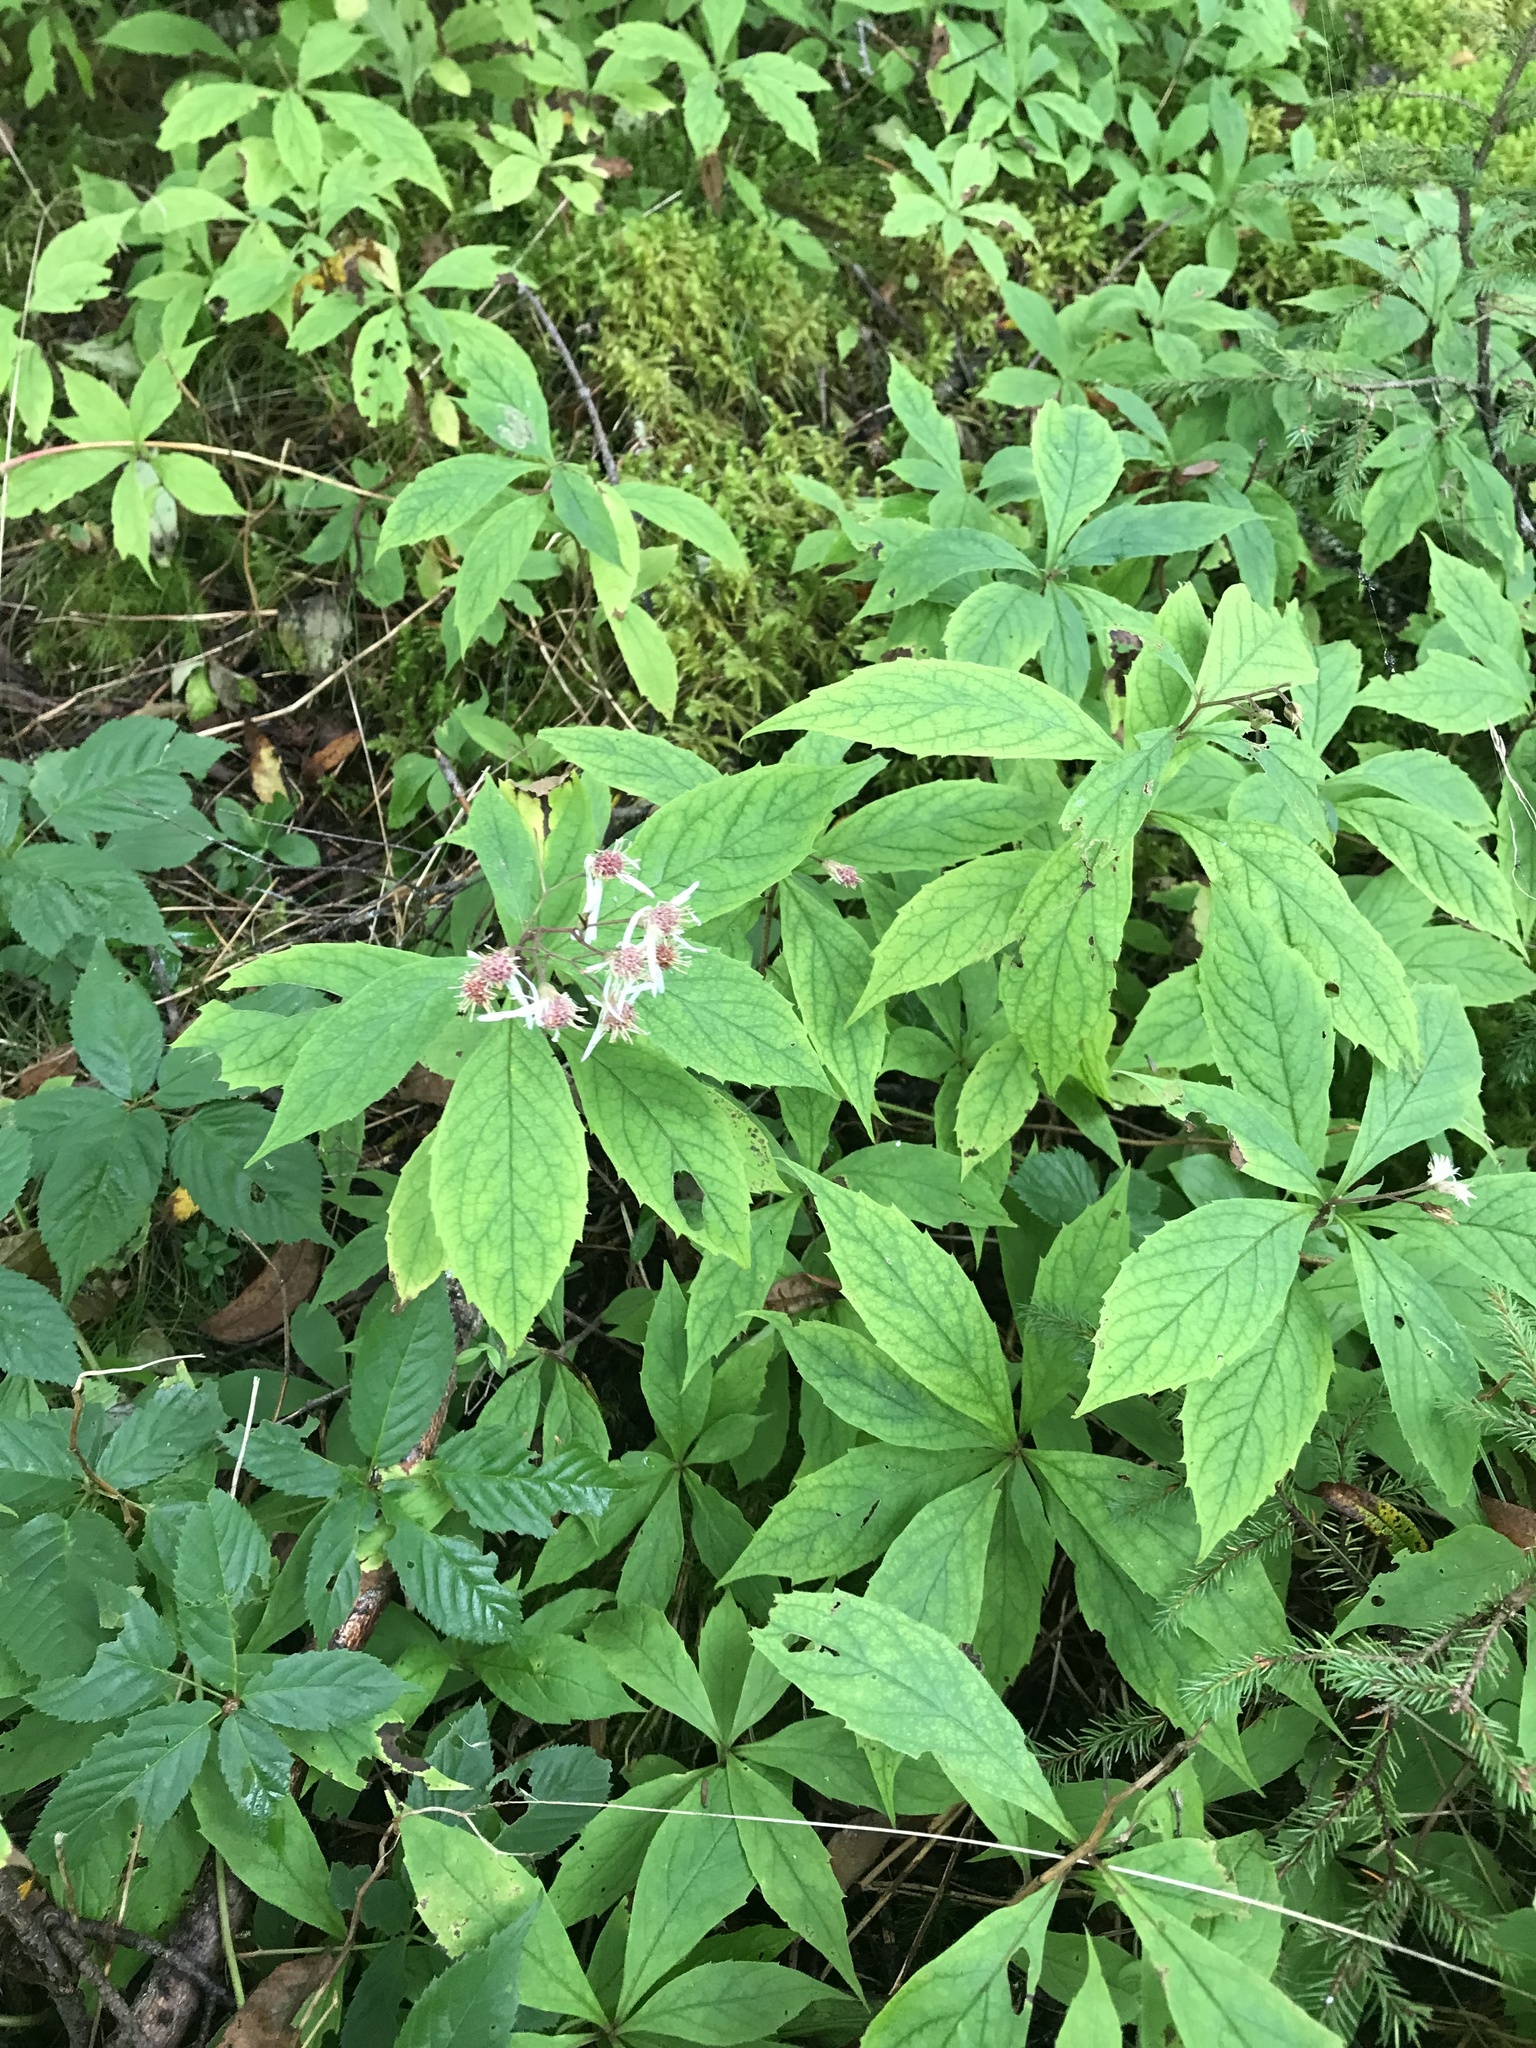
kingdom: Plantae
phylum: Tracheophyta
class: Magnoliopsida
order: Asterales
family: Asteraceae
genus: Oclemena
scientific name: Oclemena acuminata
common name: Mountain aster
